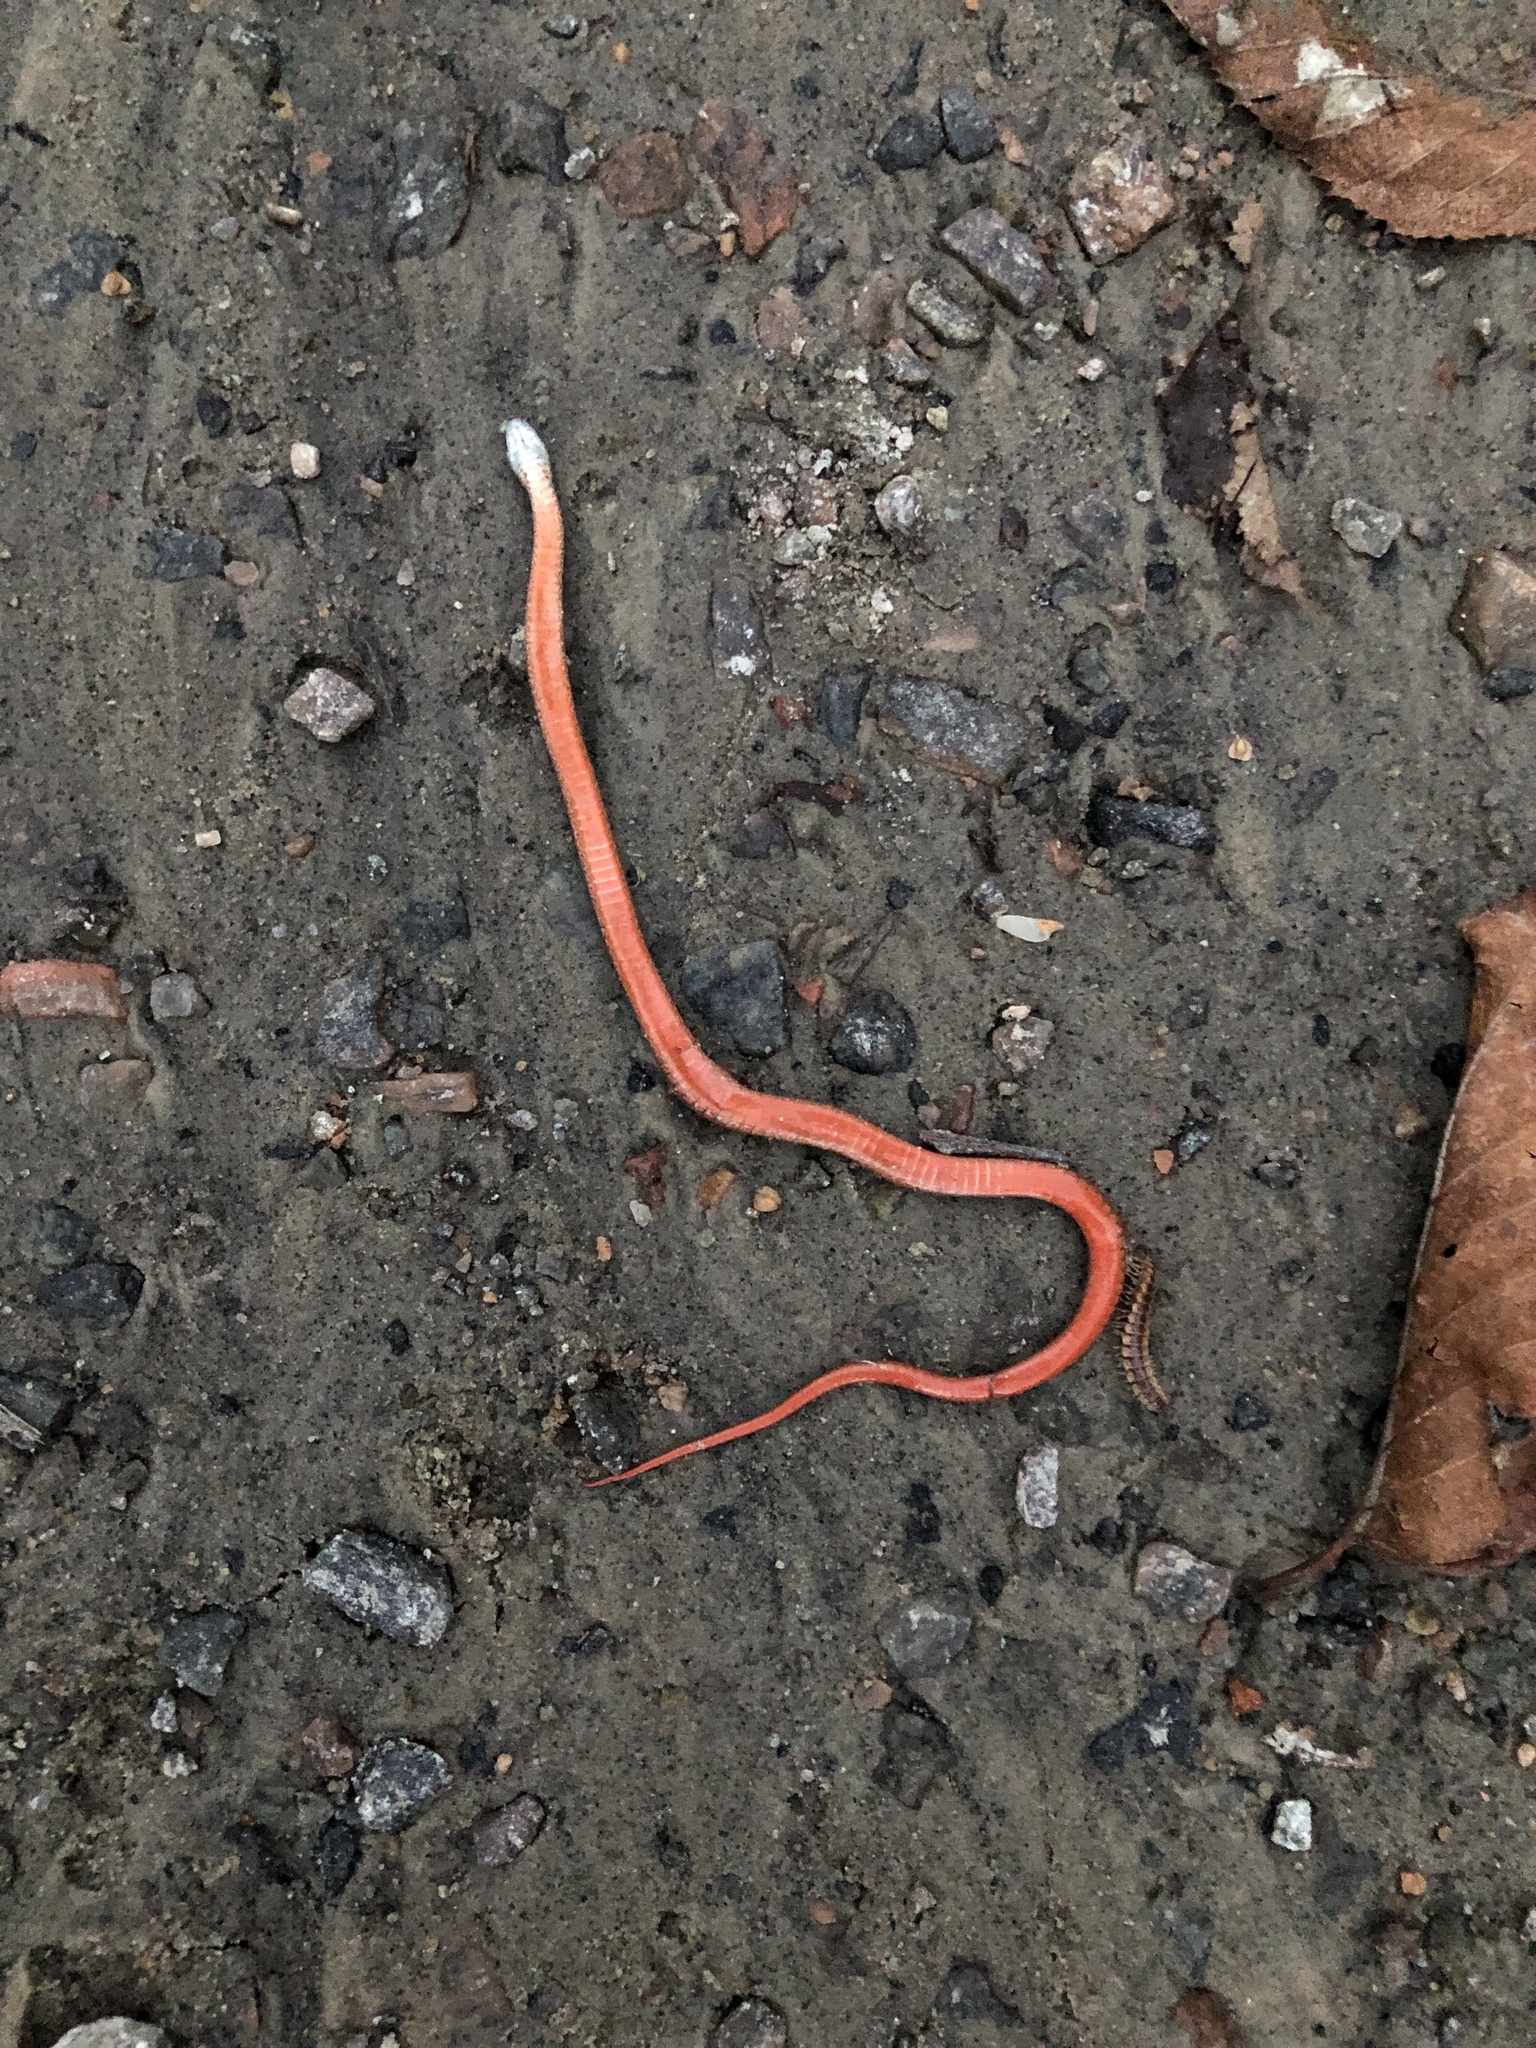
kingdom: Animalia
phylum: Chordata
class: Squamata
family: Colubridae
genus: Storeria
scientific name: Storeria occipitomaculata
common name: Redbelly snake
